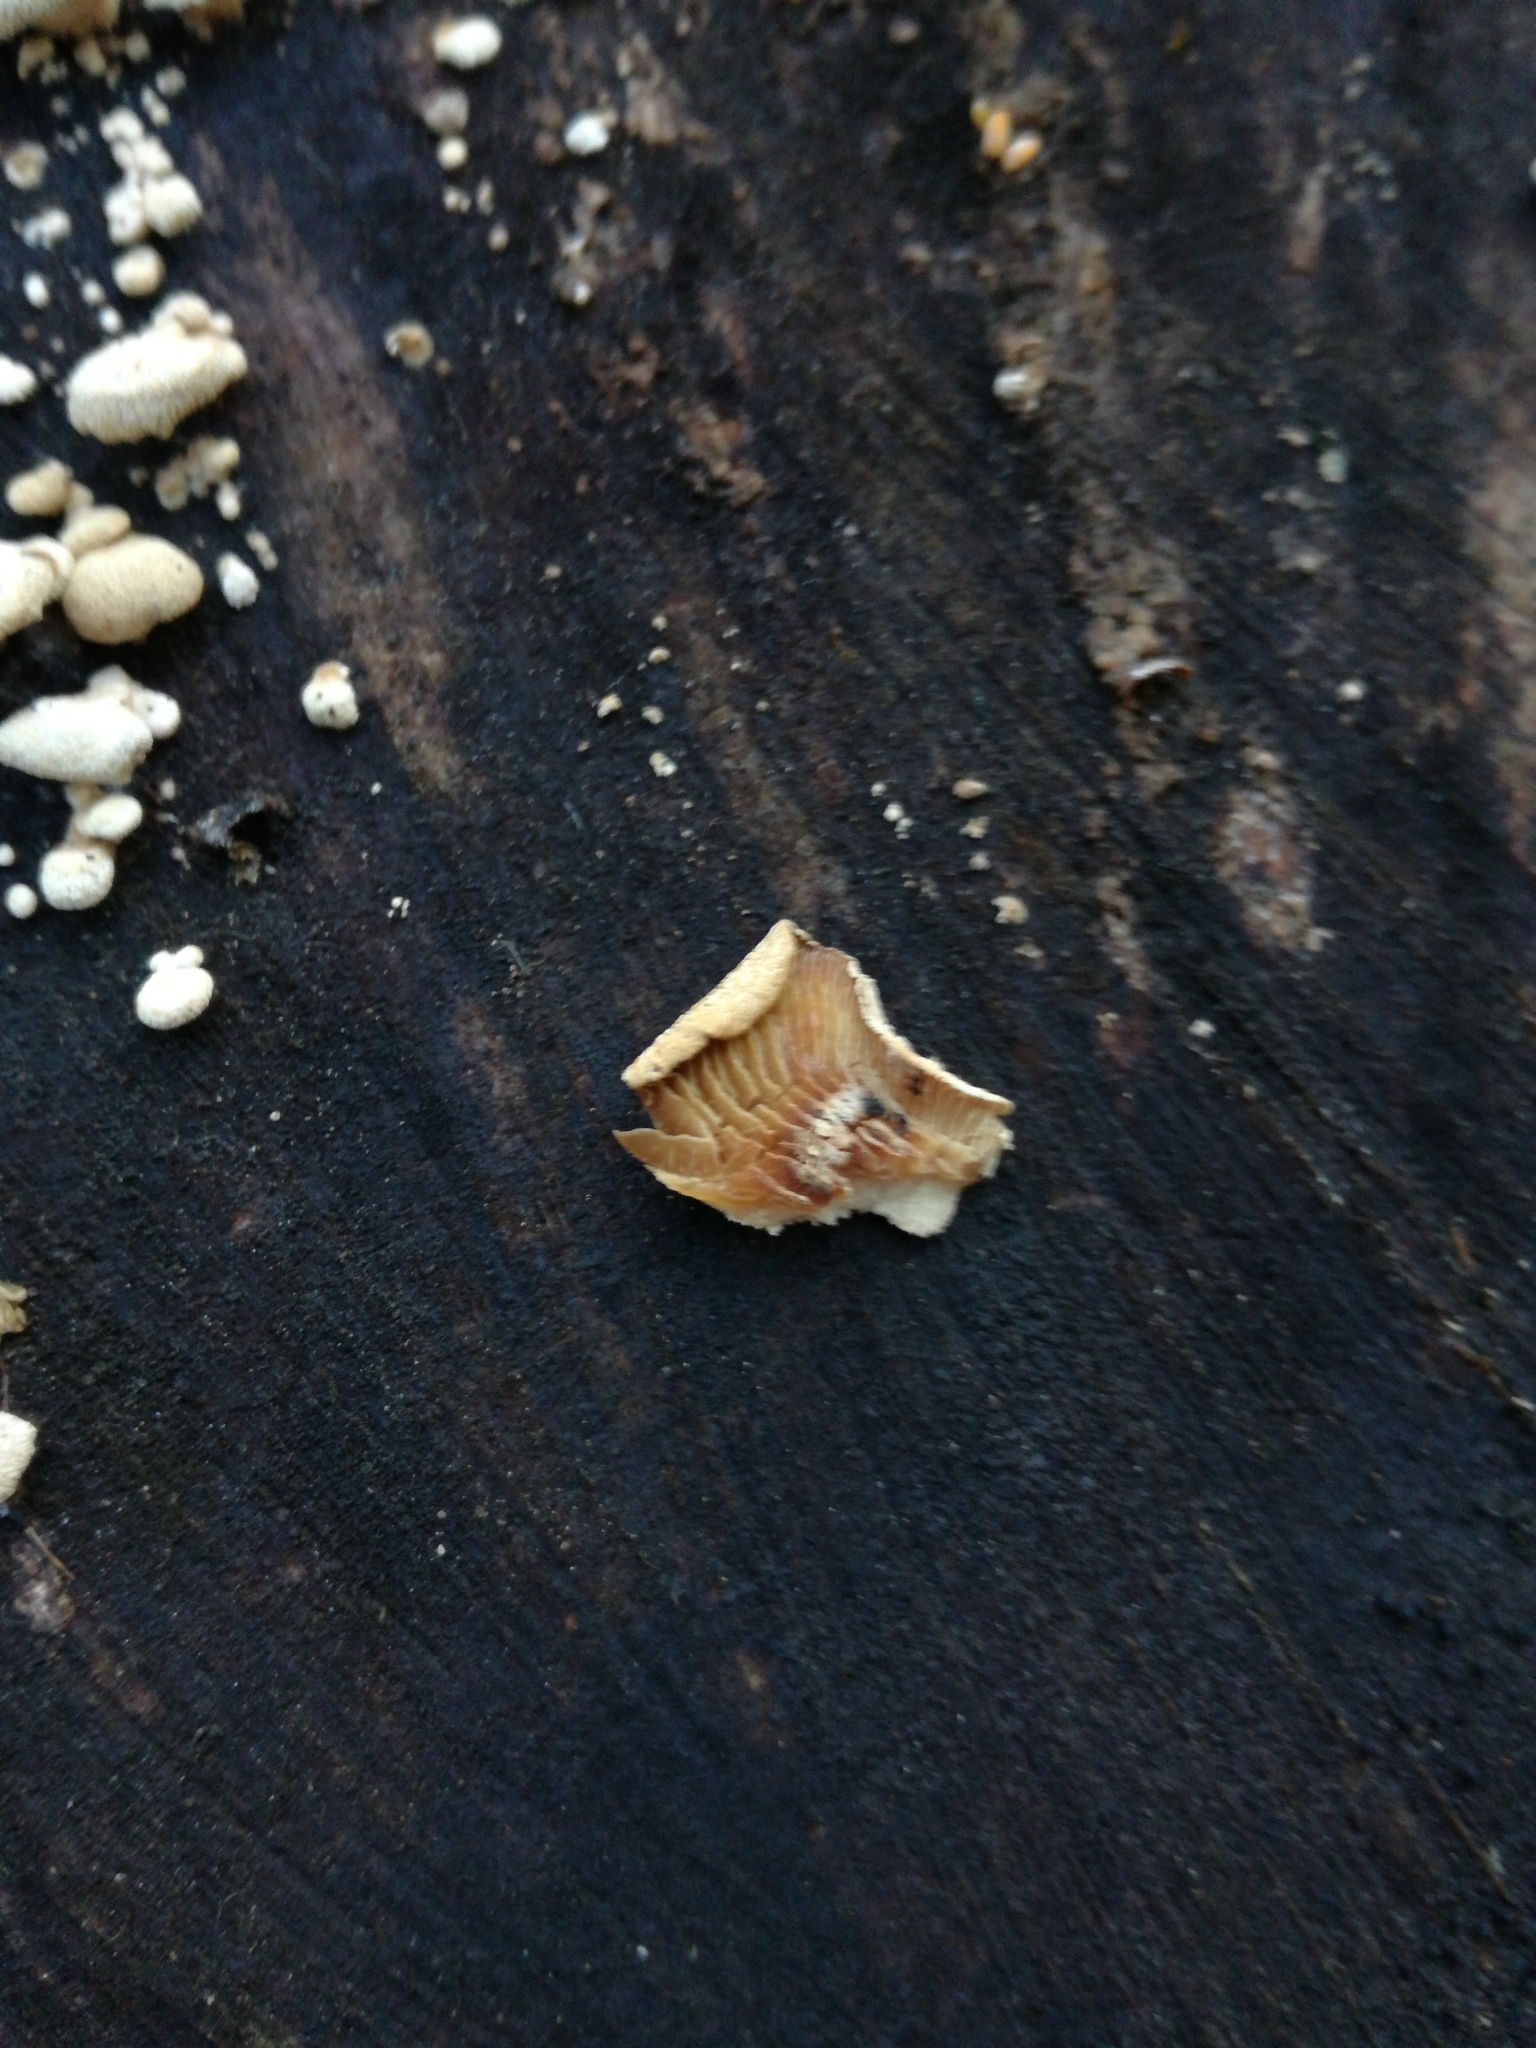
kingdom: Fungi
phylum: Basidiomycota
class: Agaricomycetes
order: Agaricales
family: Mycenaceae
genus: Panellus
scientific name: Panellus stipticus
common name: Bitter oysterling
